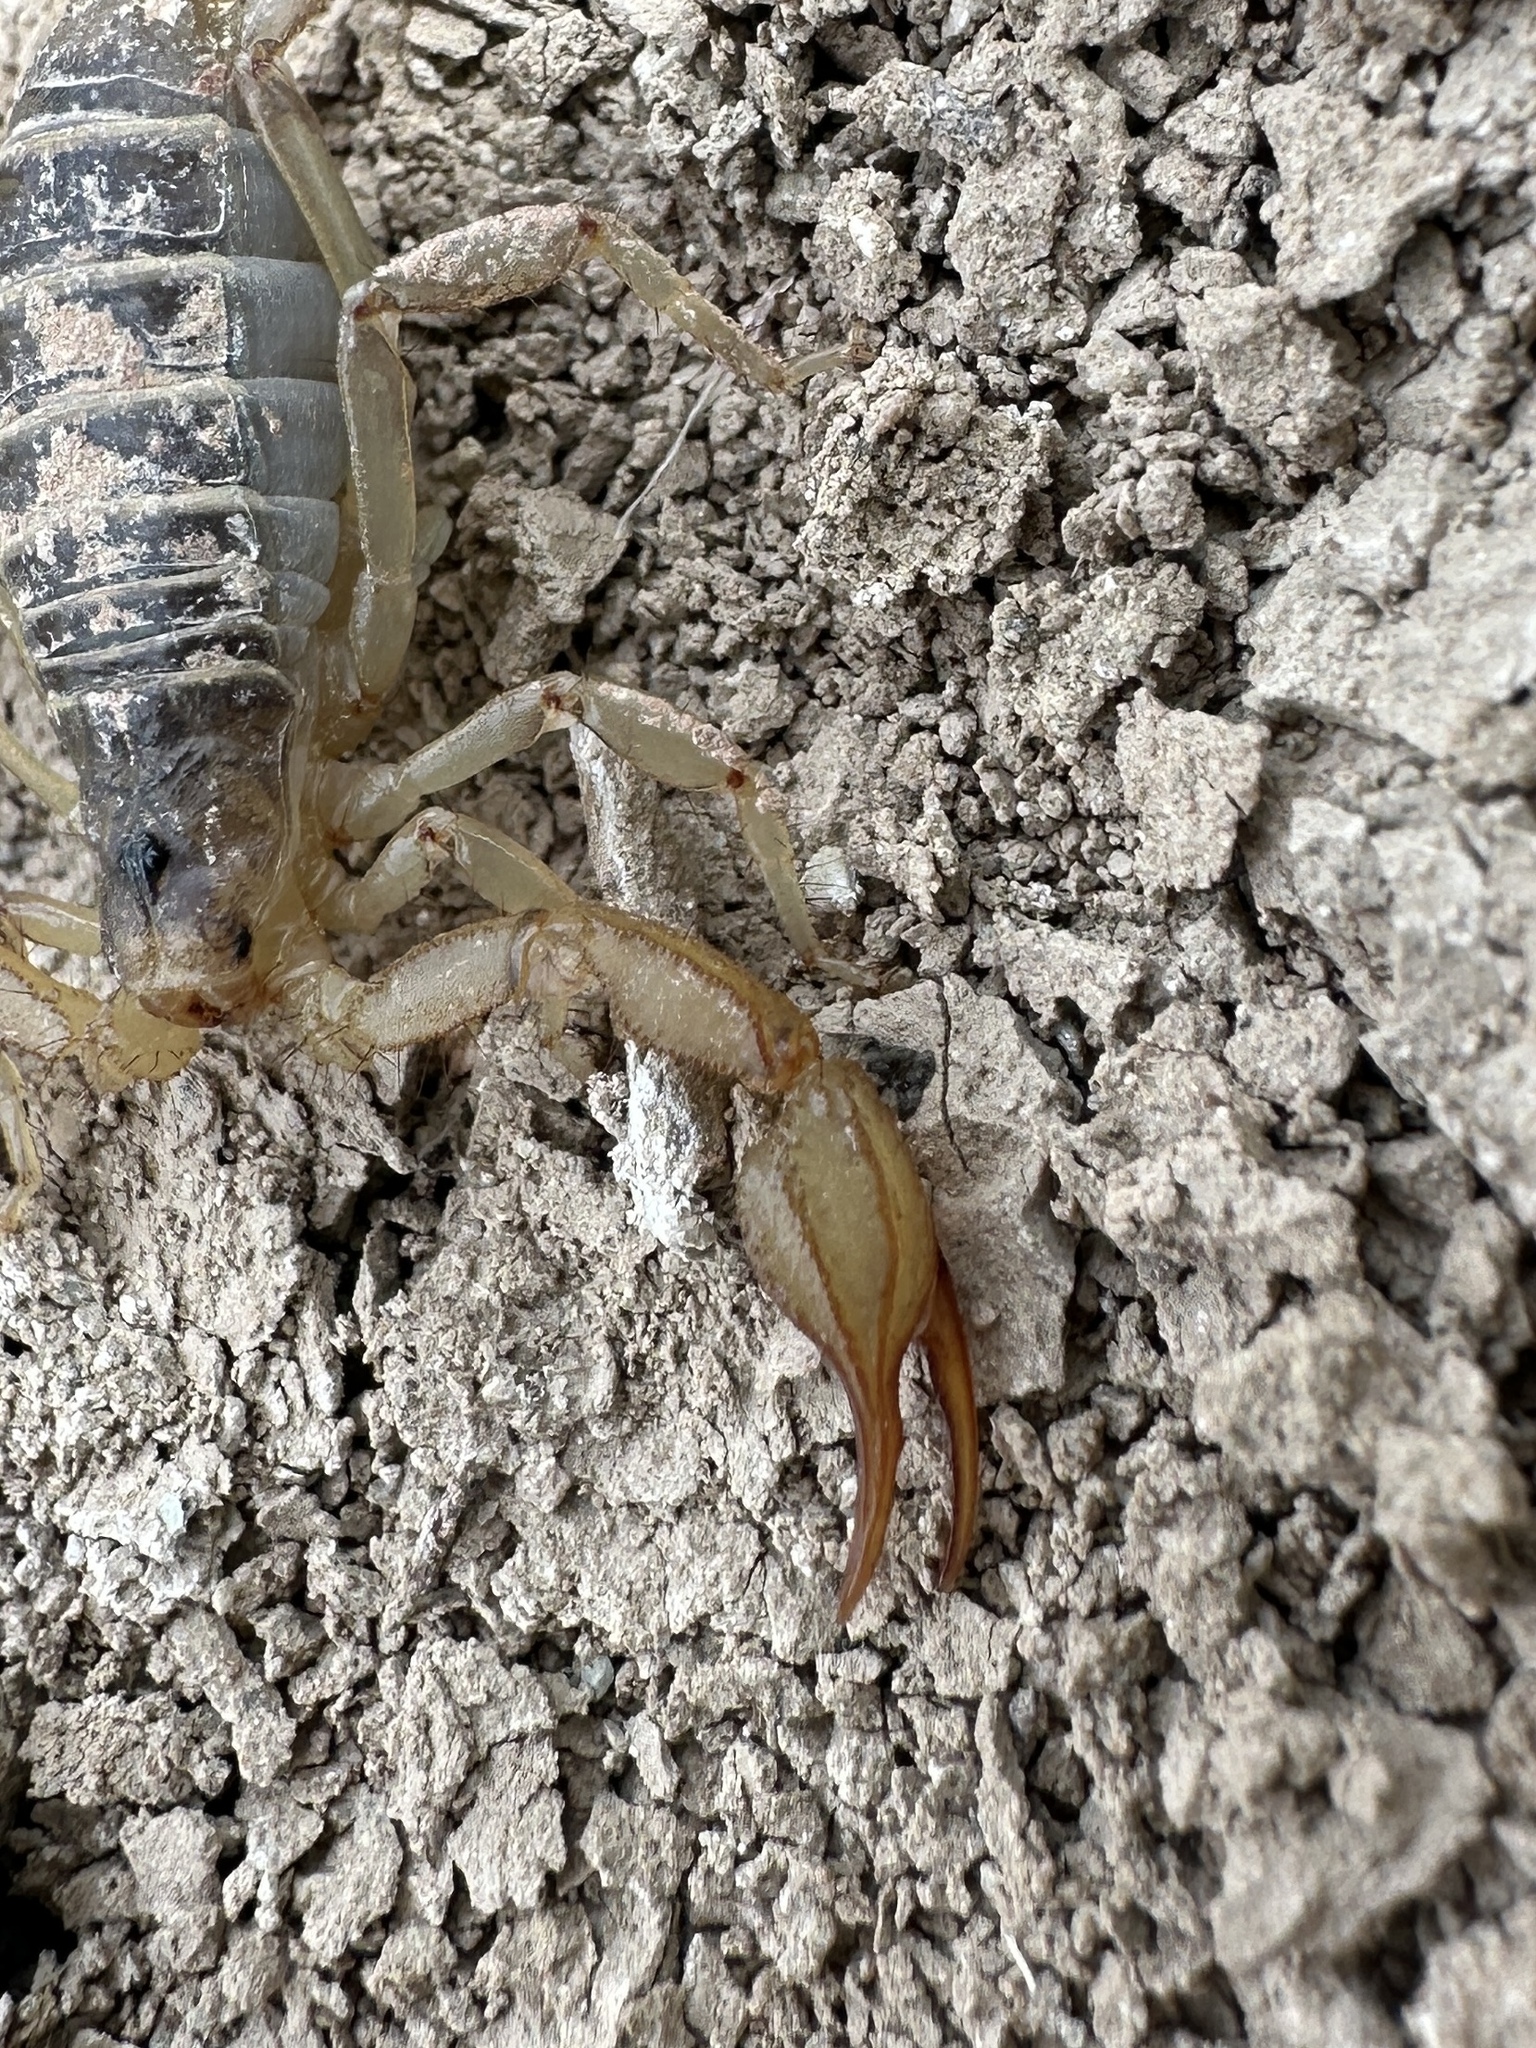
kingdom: Animalia
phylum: Arthropoda
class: Arachnida
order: Scorpiones
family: Vaejovidae
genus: Paruroctonus
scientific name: Paruroctonus boreus
